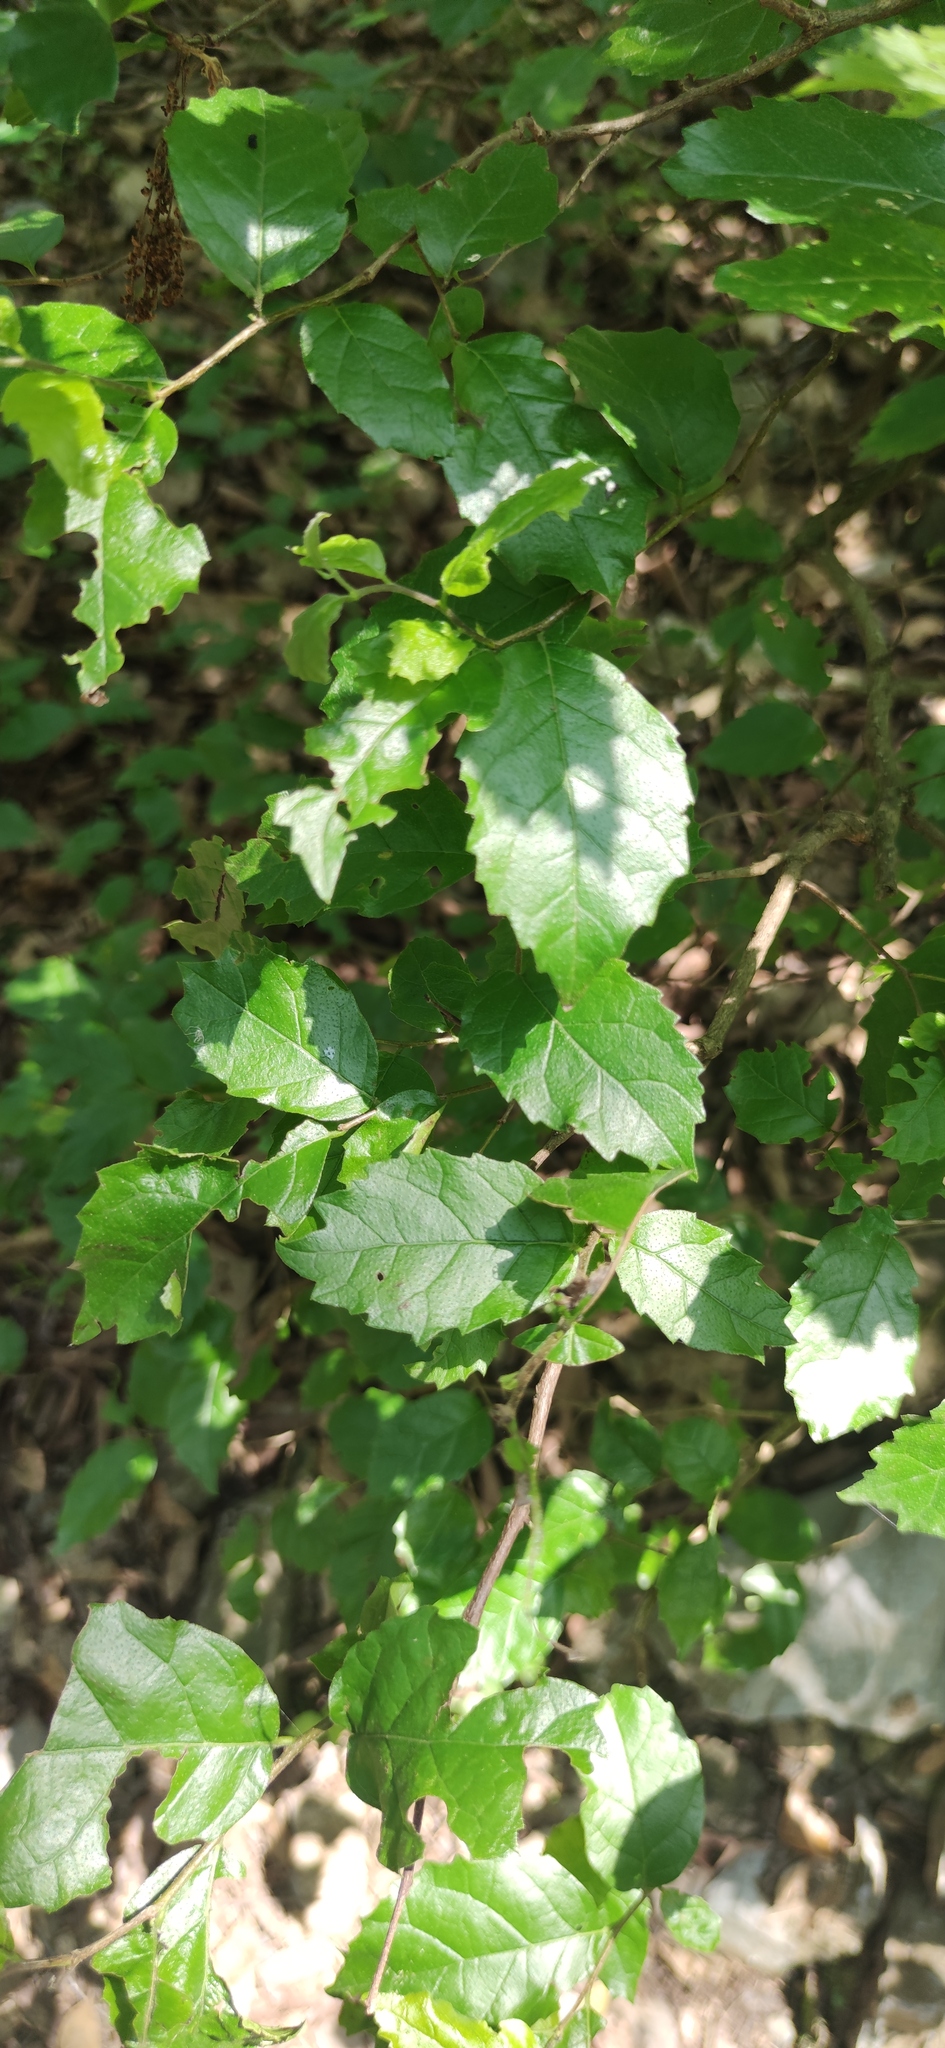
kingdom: Plantae
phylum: Tracheophyta
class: Magnoliopsida
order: Boraginales
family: Ehretiaceae
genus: Ehretia
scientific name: Ehretia anacua
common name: Sugarberry
